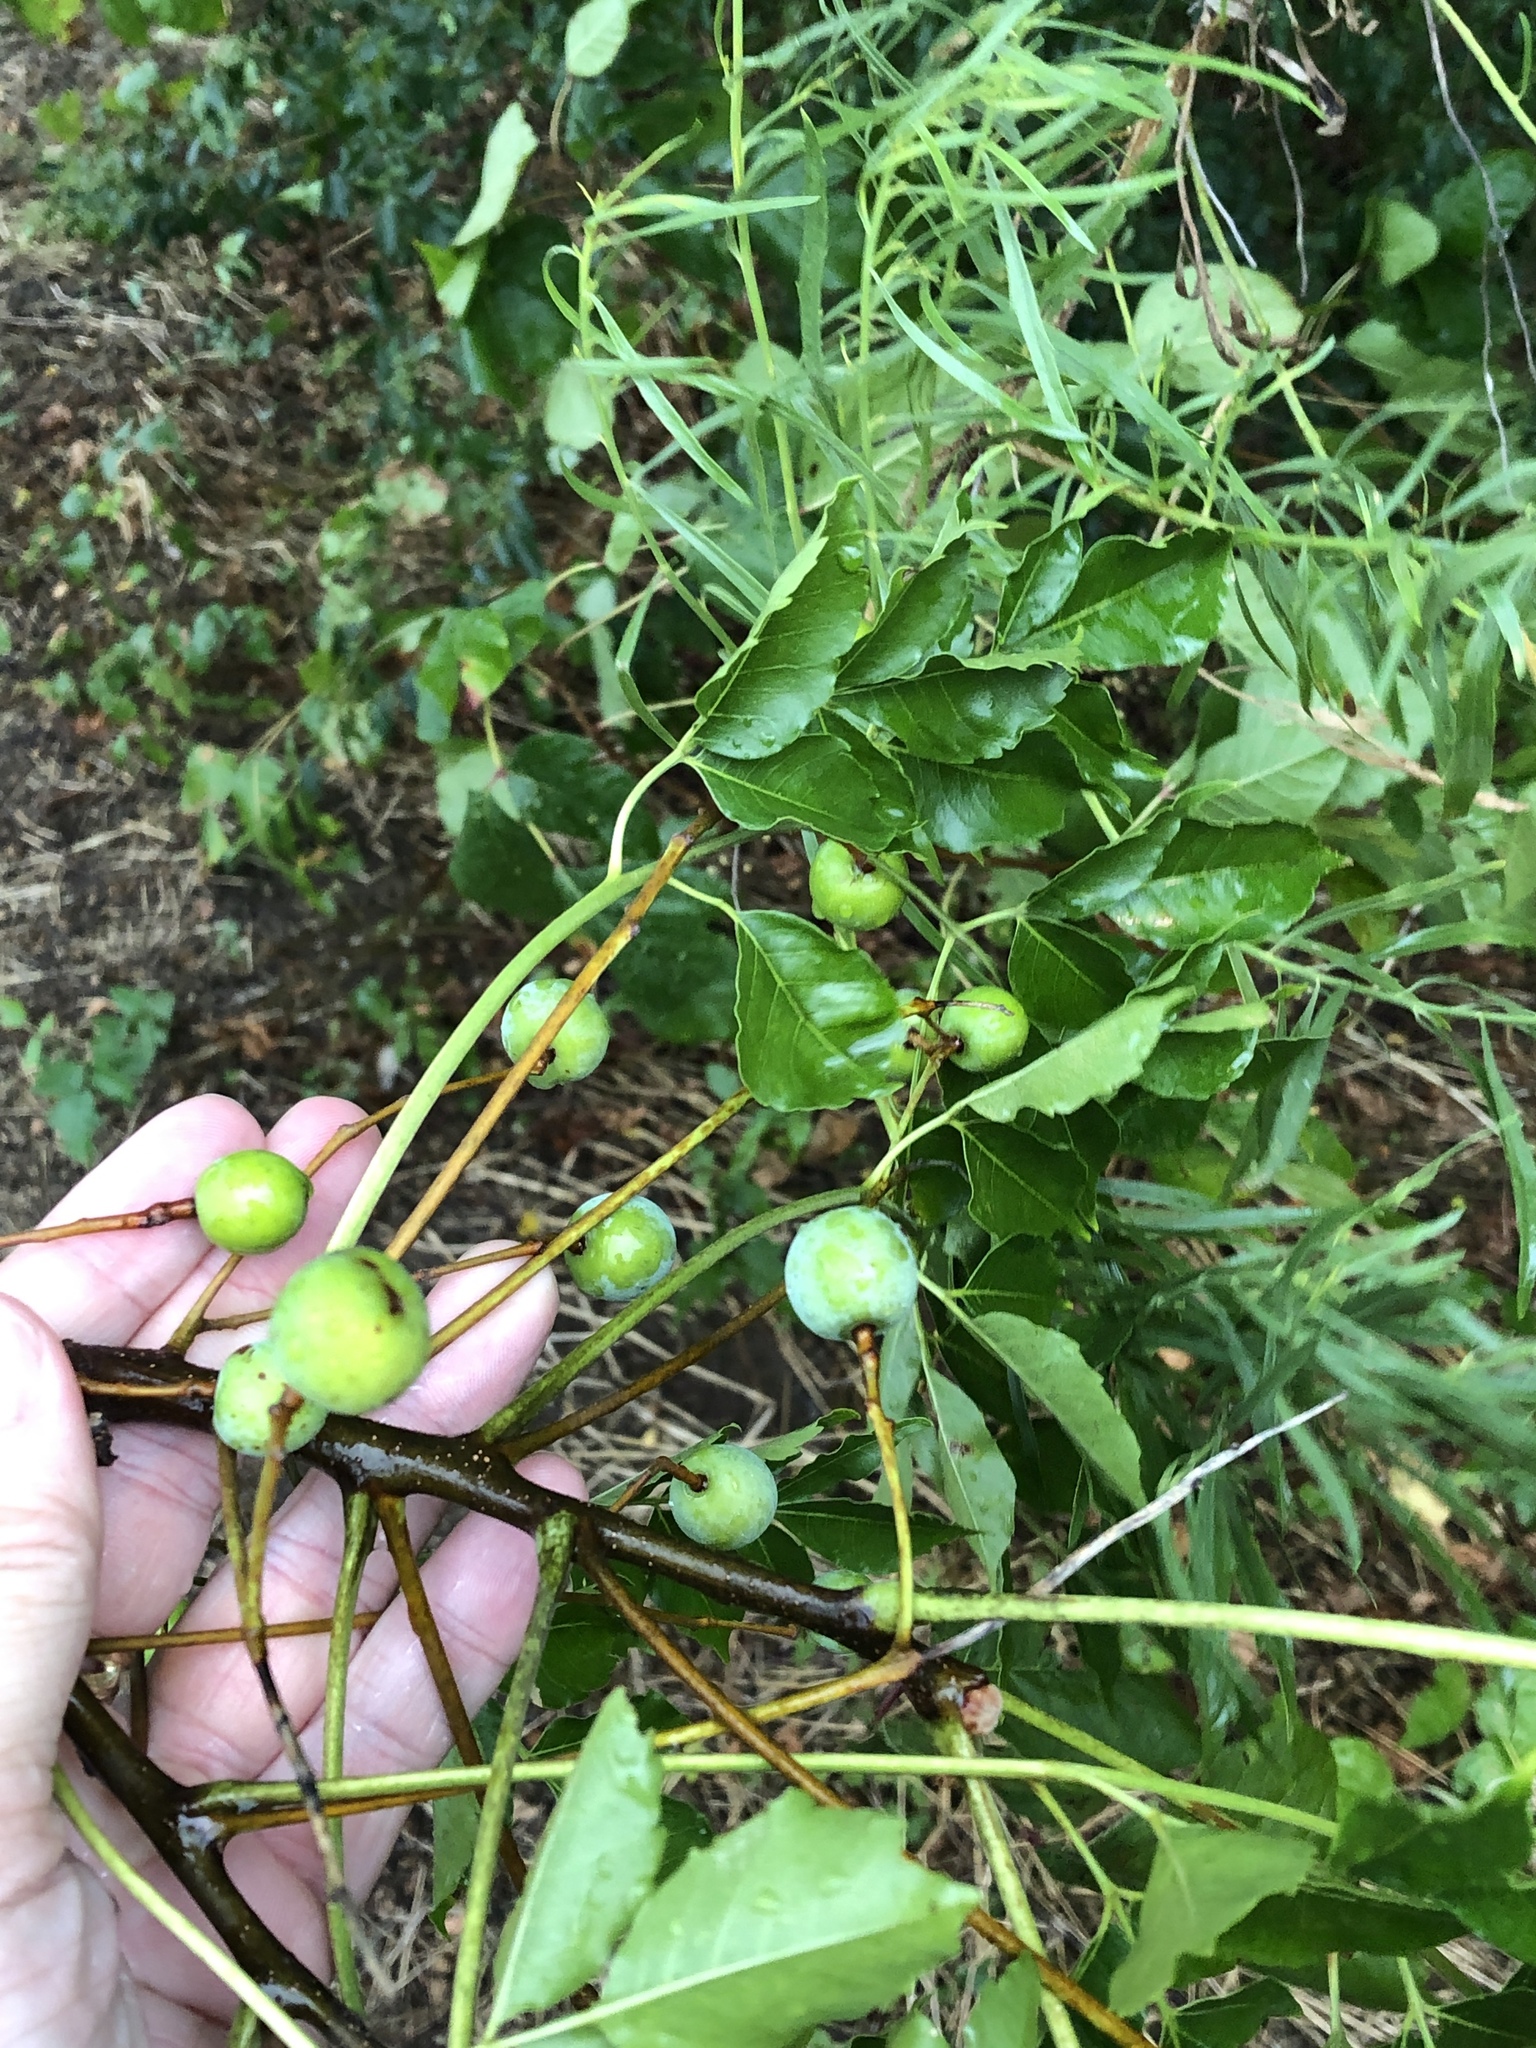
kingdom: Plantae
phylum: Tracheophyta
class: Magnoliopsida
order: Sapindales
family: Meliaceae
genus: Melia
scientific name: Melia azedarach
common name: Chinaberrytree
